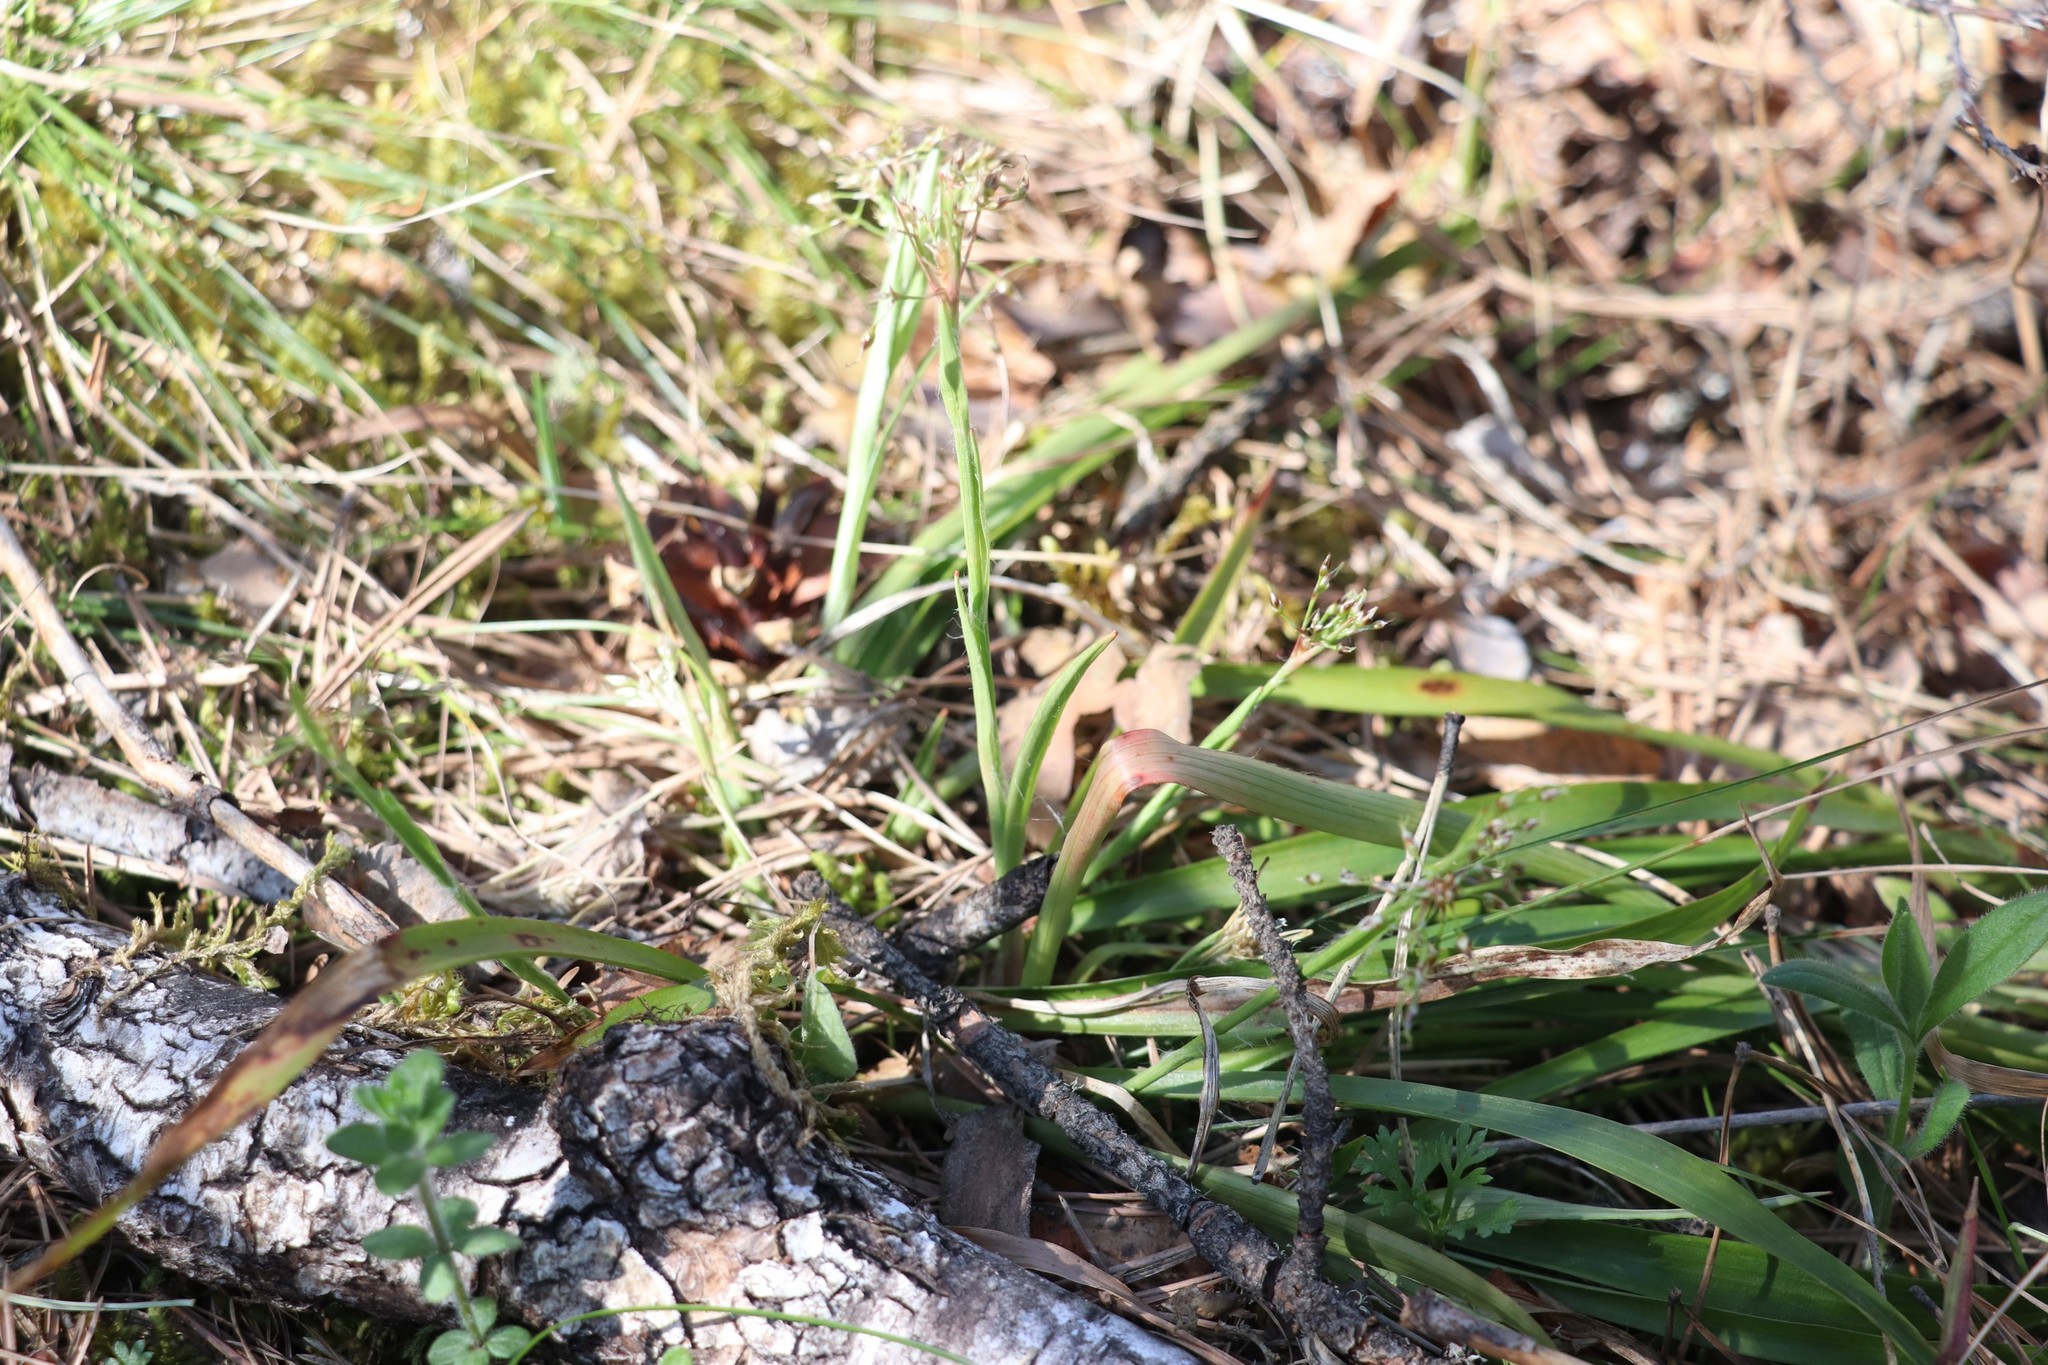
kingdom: Plantae
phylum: Tracheophyta
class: Liliopsida
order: Poales
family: Juncaceae
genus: Luzula
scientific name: Luzula pilosa
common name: Hairy wood-rush
